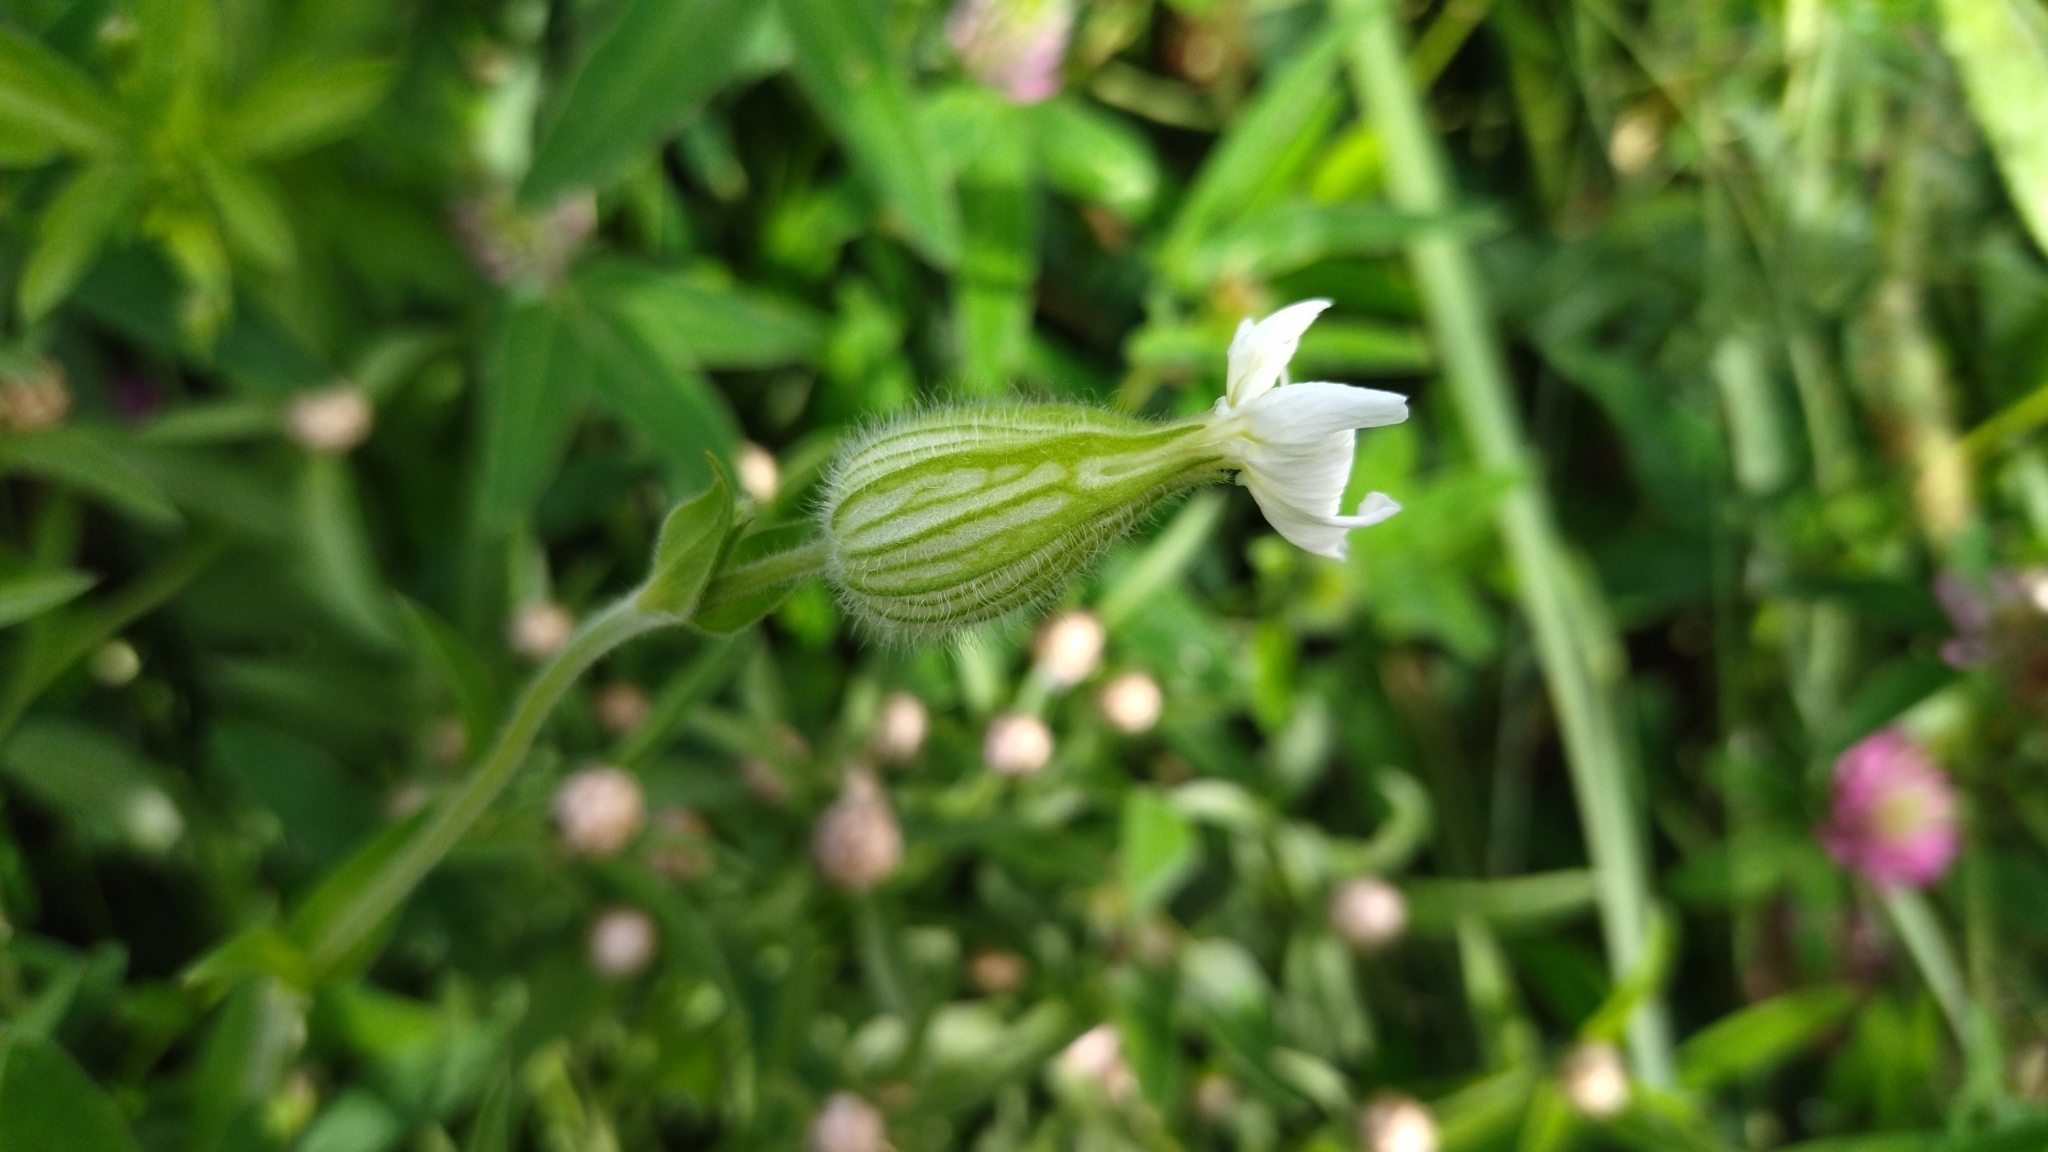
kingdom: Plantae
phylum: Tracheophyta
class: Magnoliopsida
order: Caryophyllales
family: Caryophyllaceae
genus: Silene
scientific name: Silene latifolia
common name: White campion
